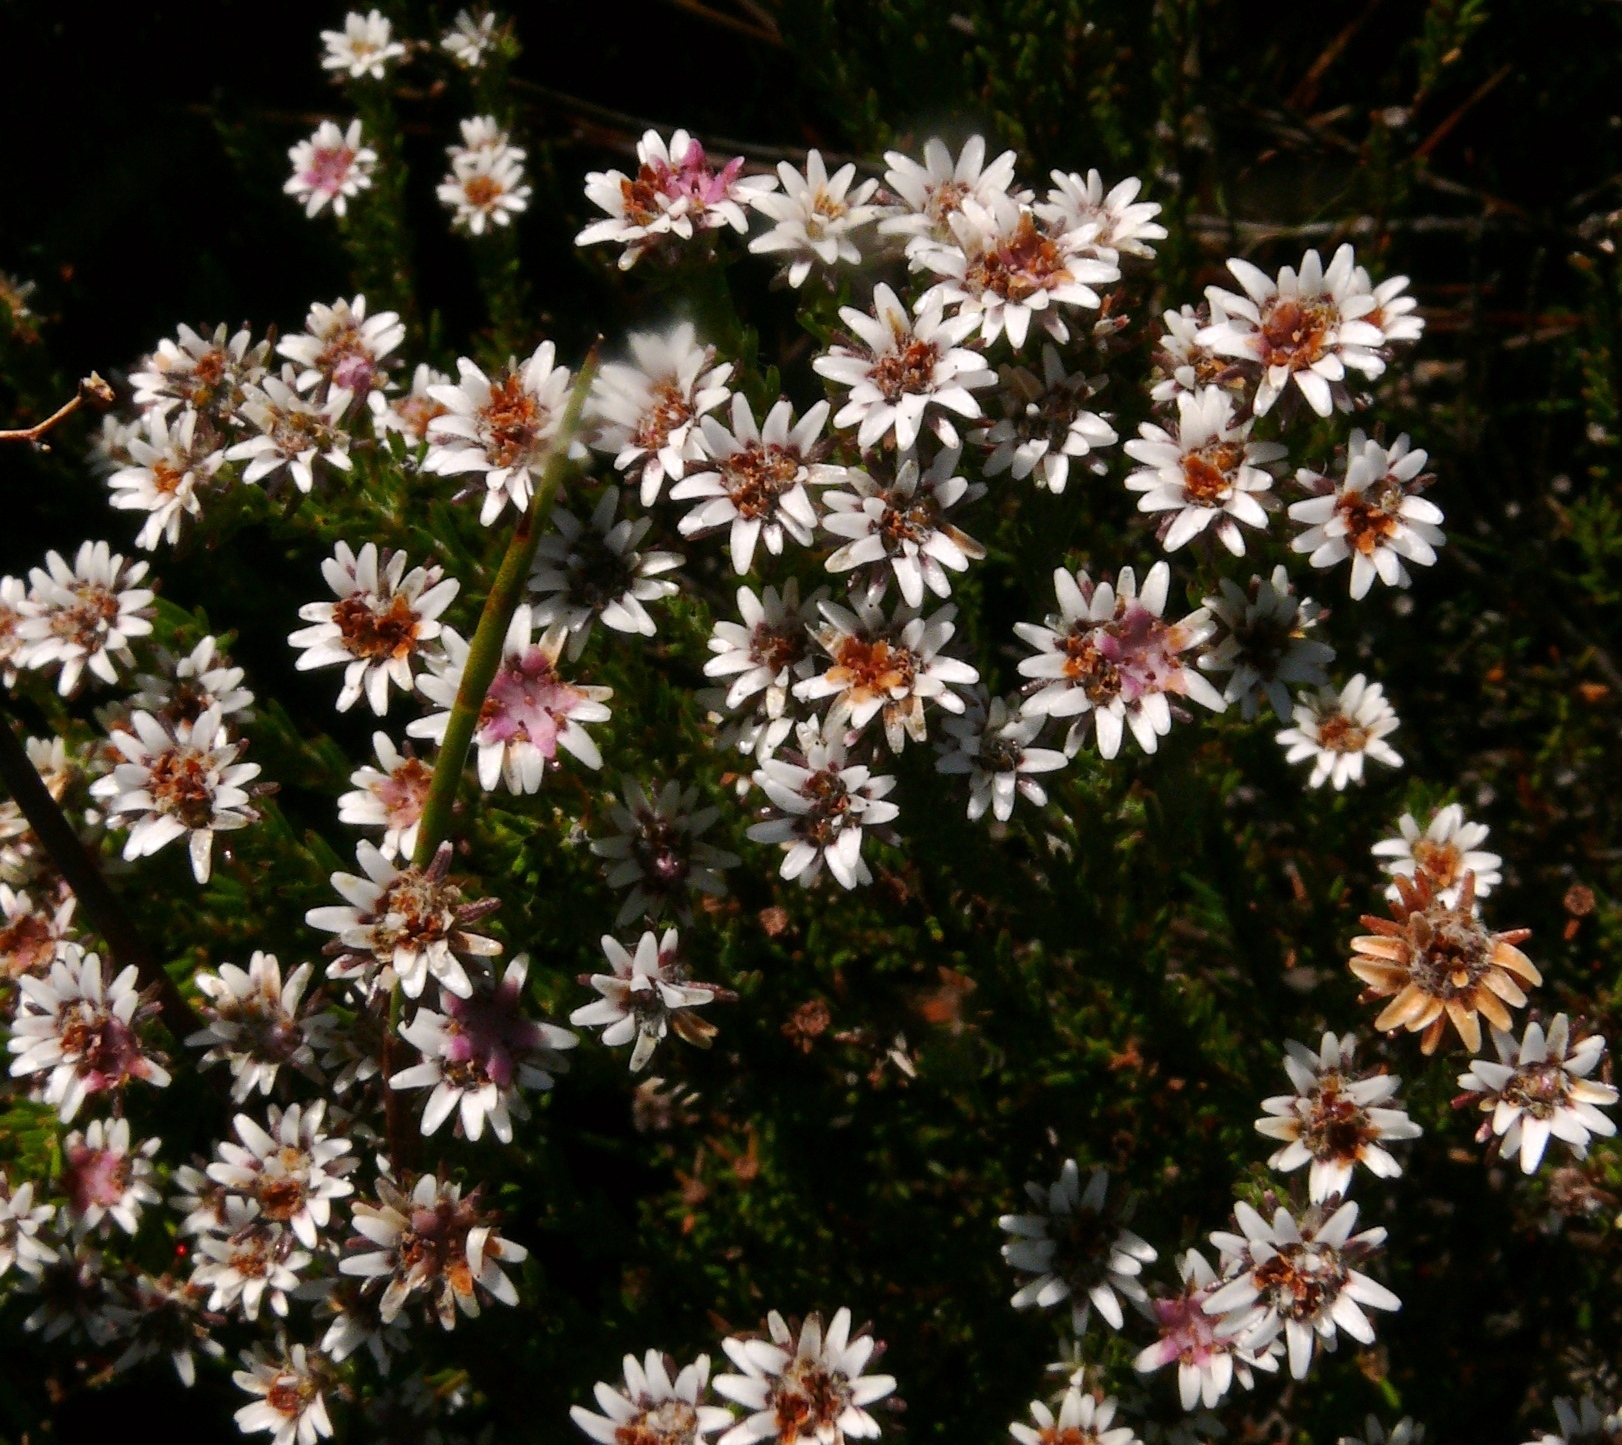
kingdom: Plantae
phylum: Tracheophyta
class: Magnoliopsida
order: Bruniales
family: Bruniaceae
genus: Staavia
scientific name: Staavia radiata
